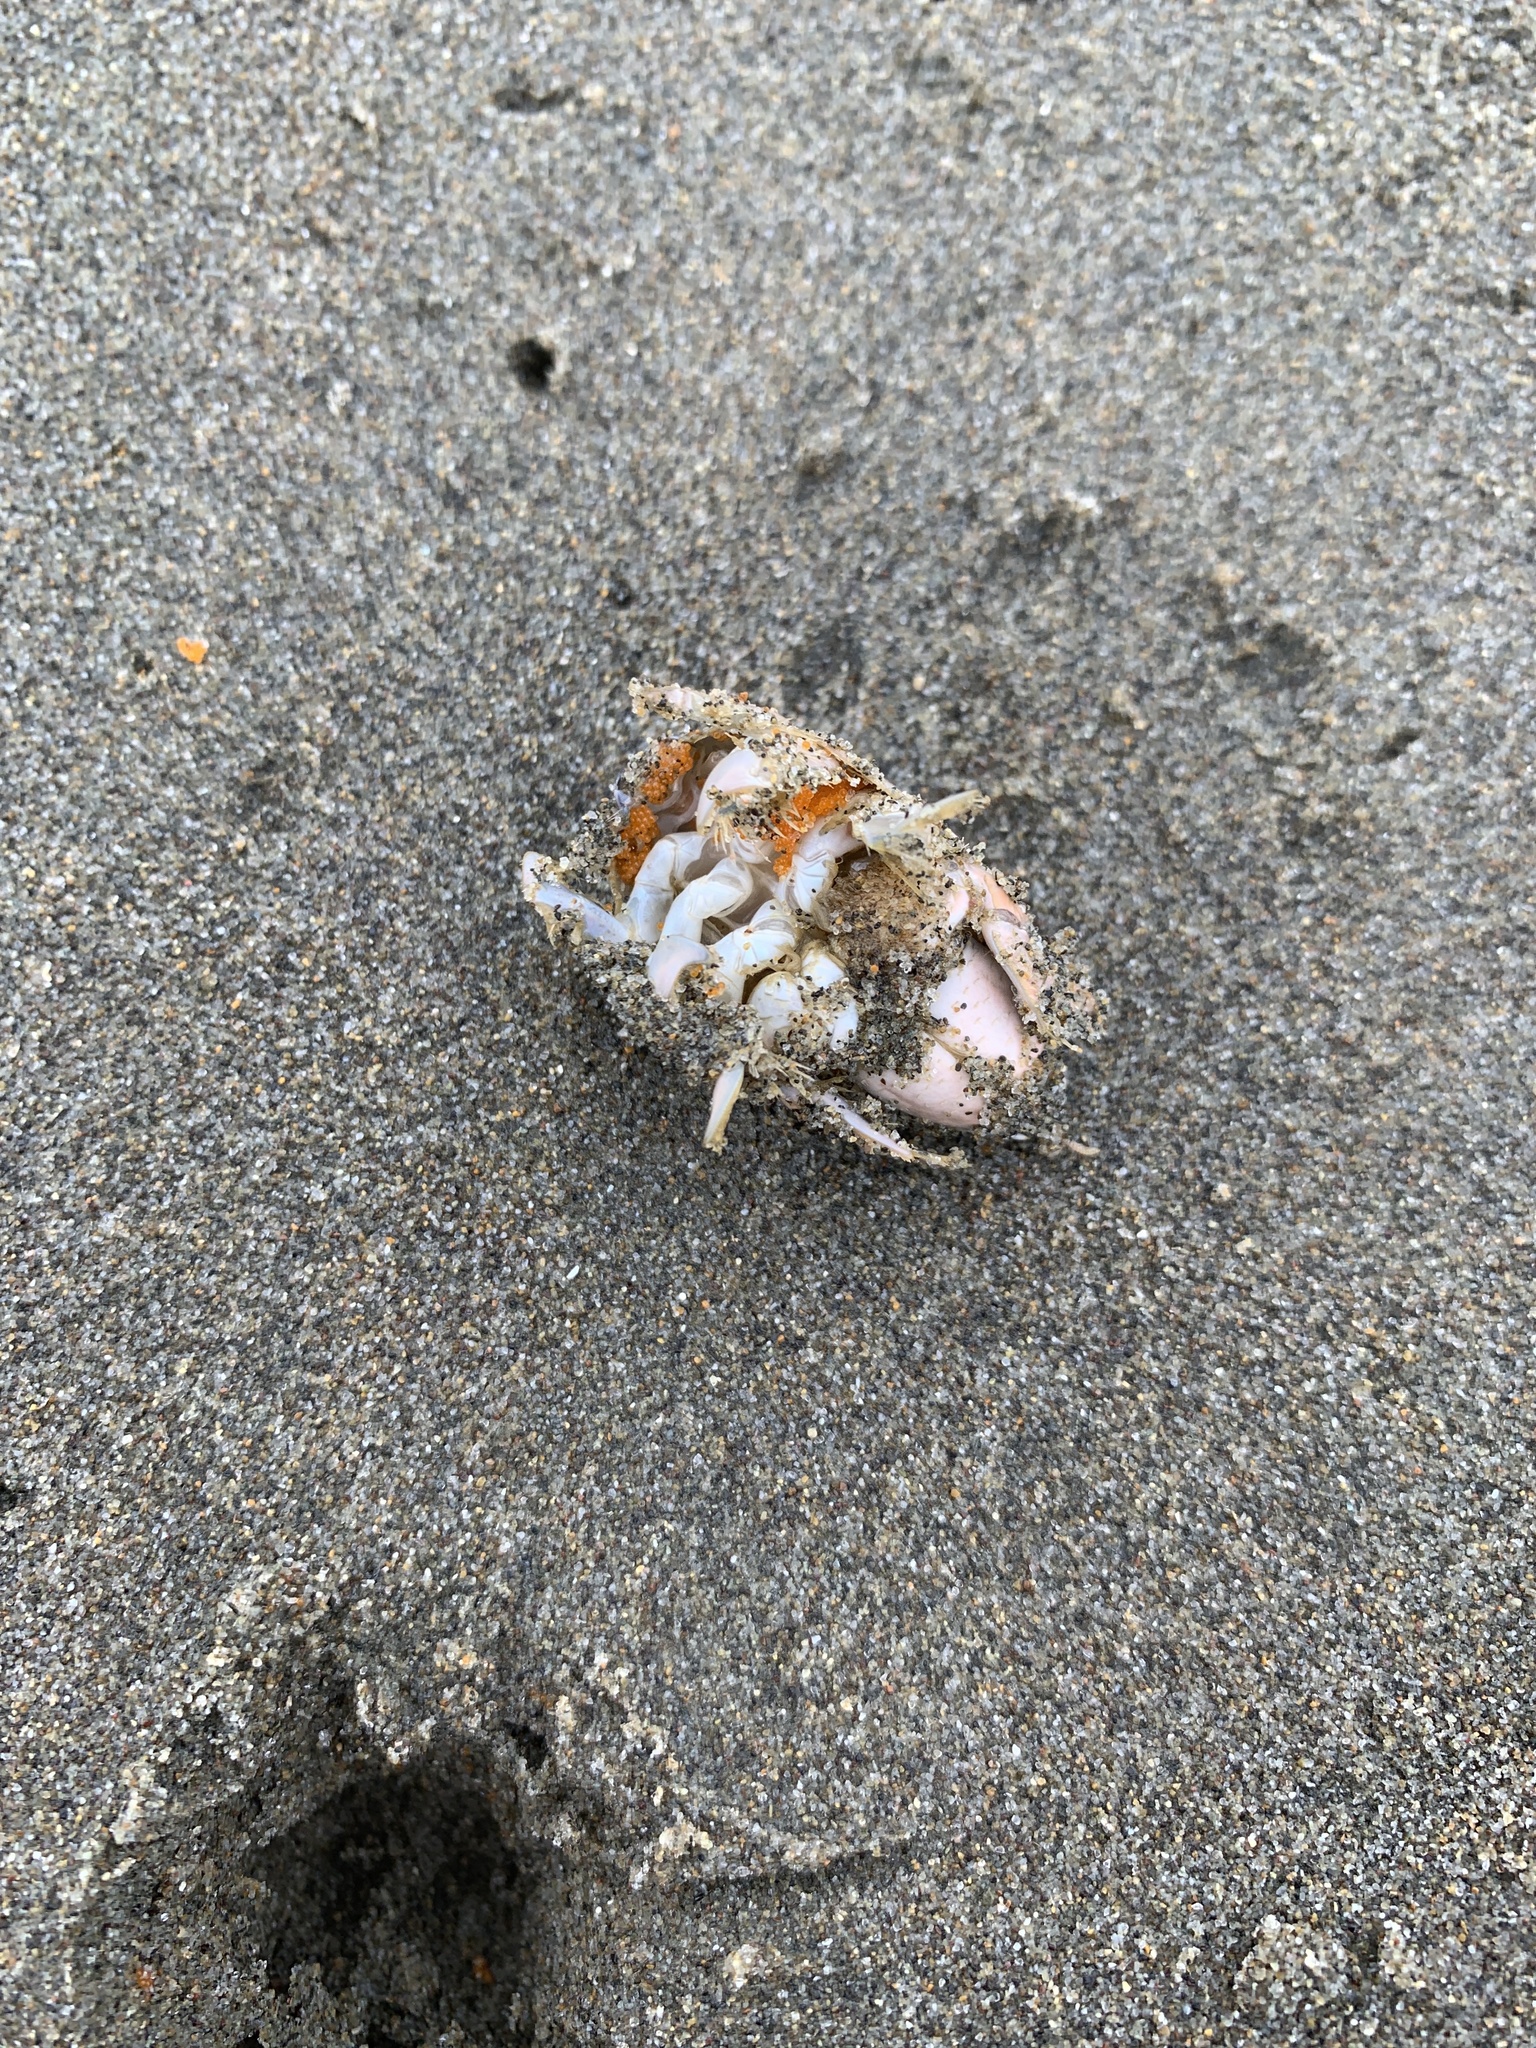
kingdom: Animalia
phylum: Arthropoda
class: Malacostraca
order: Decapoda
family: Hippidae
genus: Emerita
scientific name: Emerita analoga
